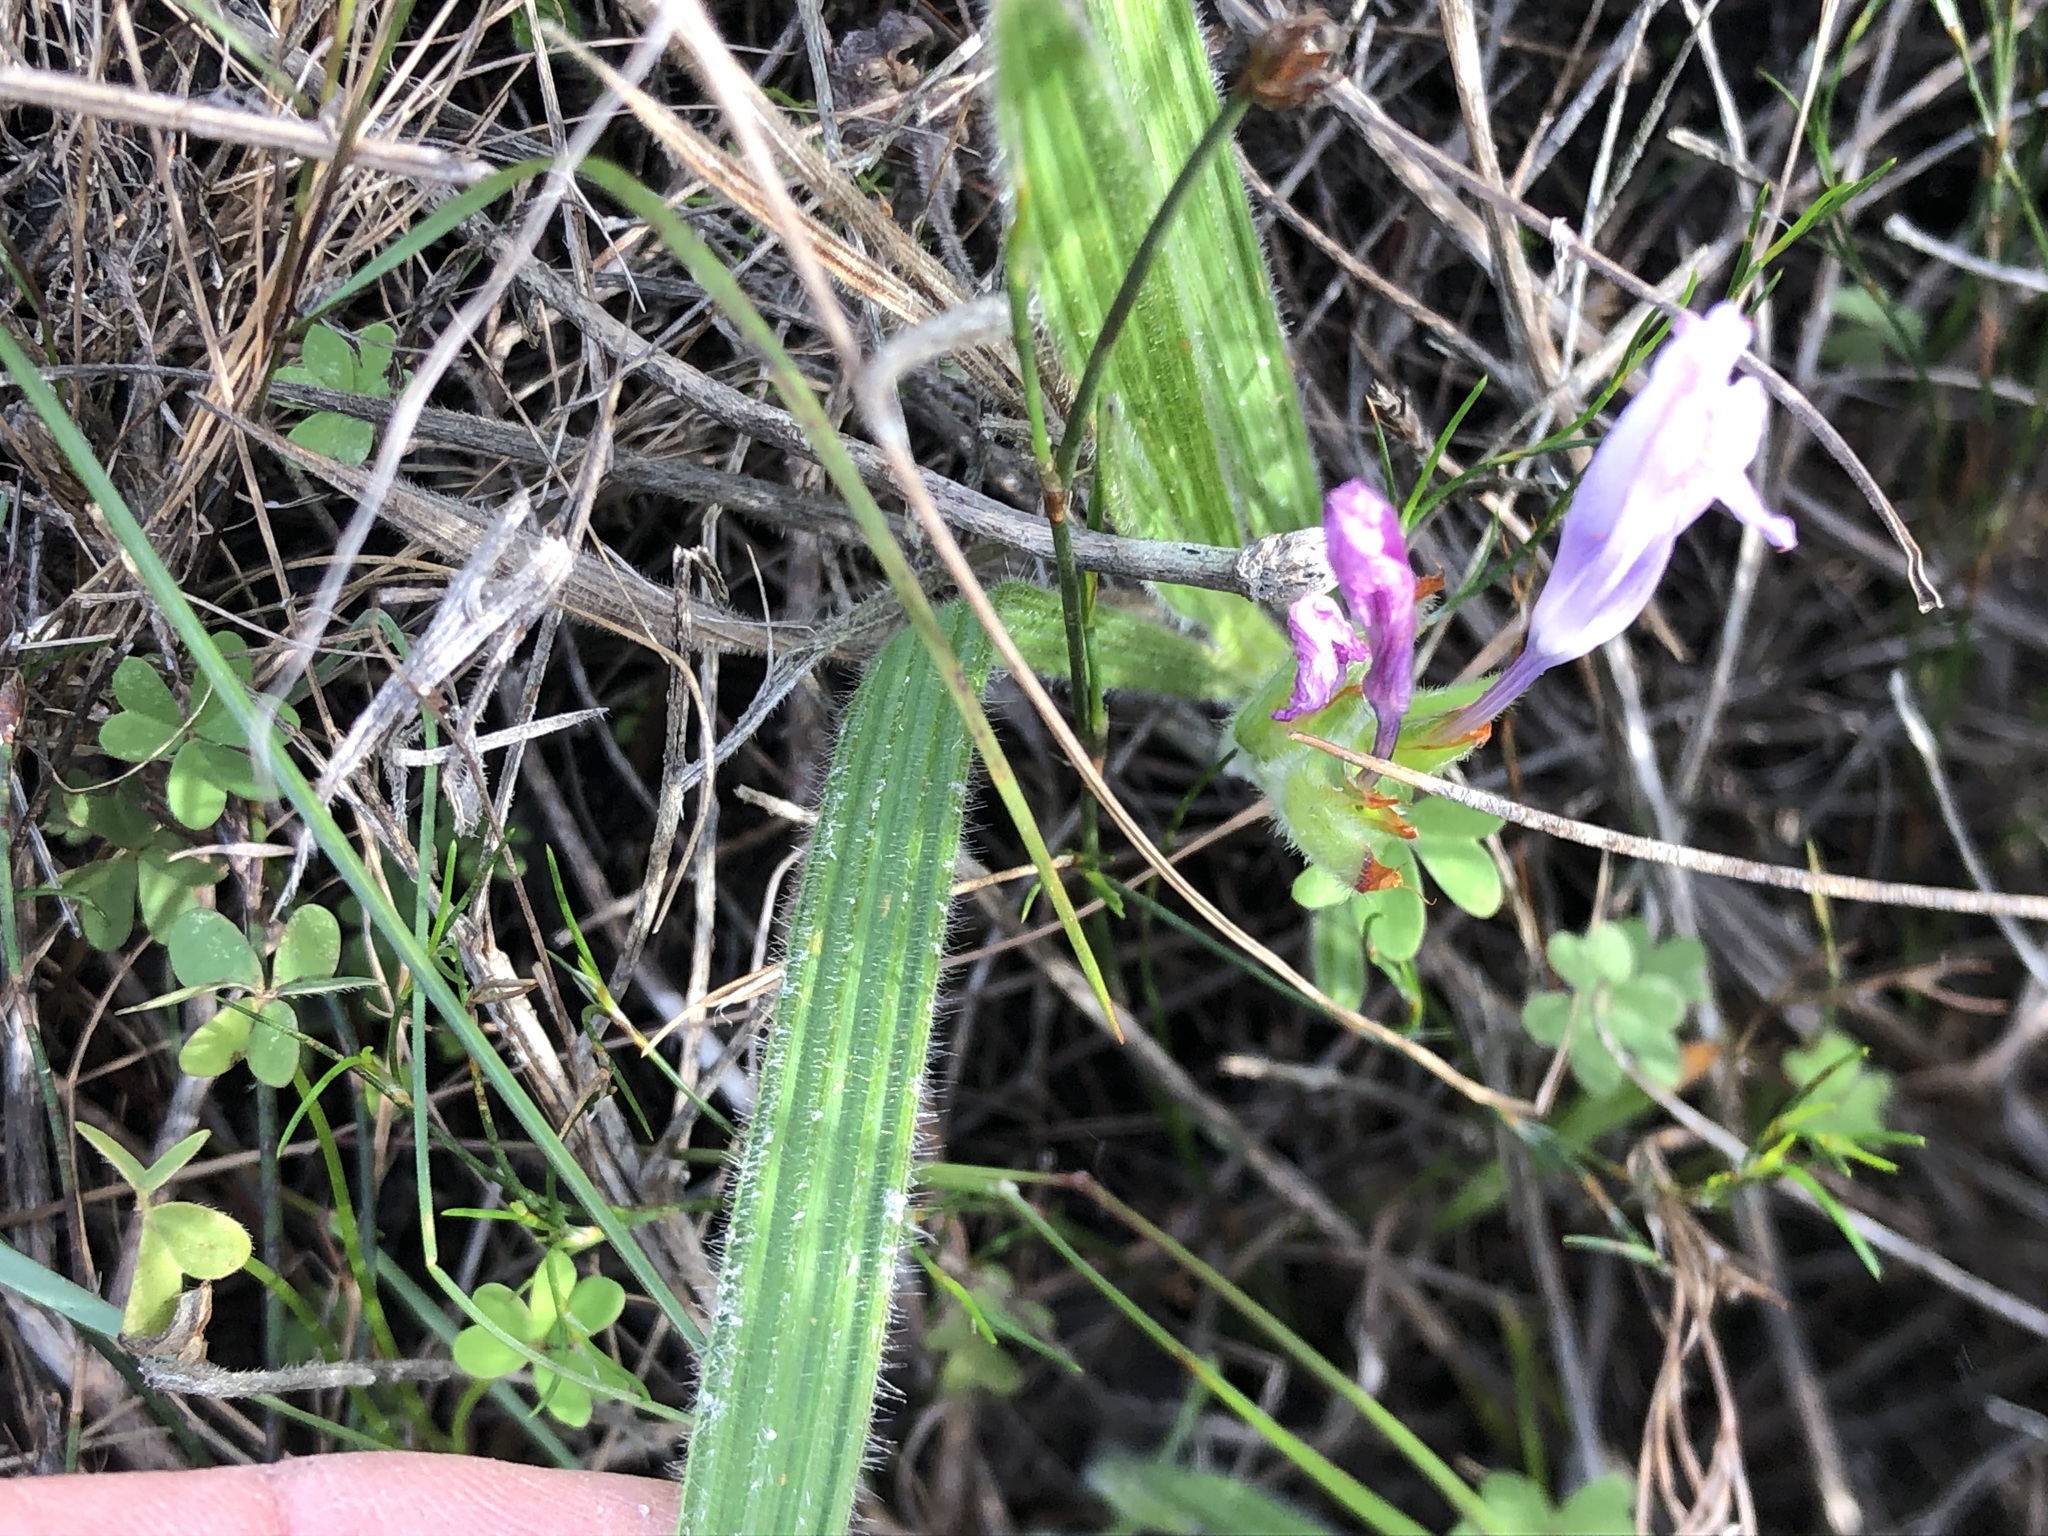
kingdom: Plantae
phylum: Tracheophyta
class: Liliopsida
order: Asparagales
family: Iridaceae
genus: Babiana
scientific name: Babiana villosula
